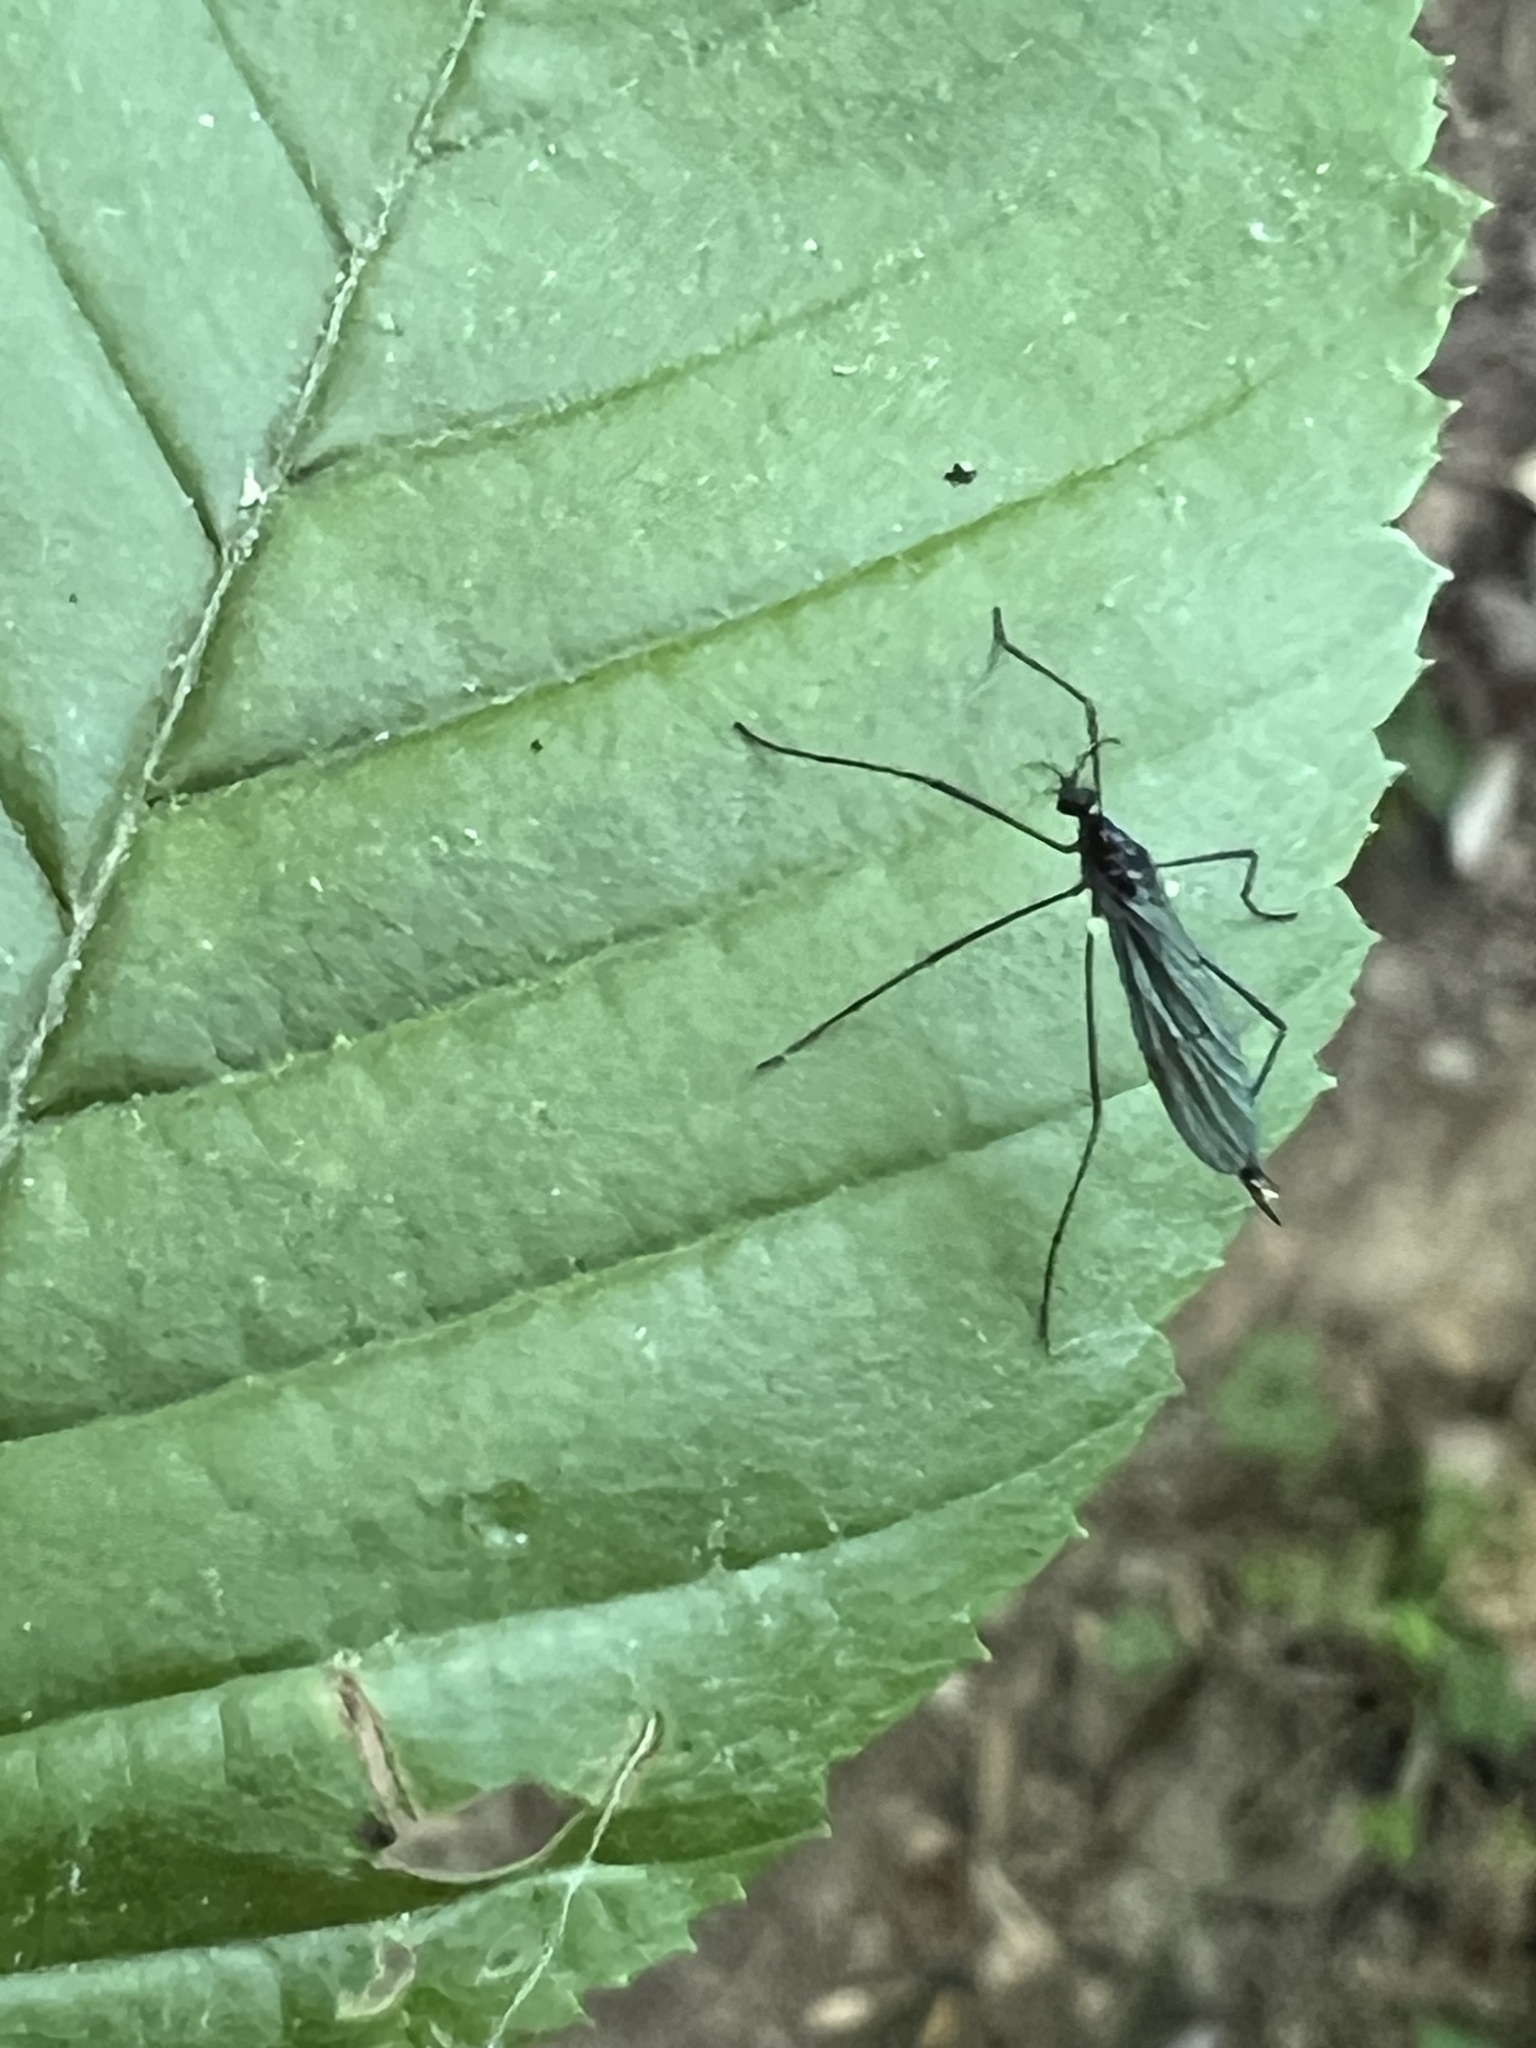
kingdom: Animalia
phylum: Arthropoda
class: Insecta
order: Diptera
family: Limoniidae
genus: Gnophomyia
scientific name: Gnophomyia tristissima
